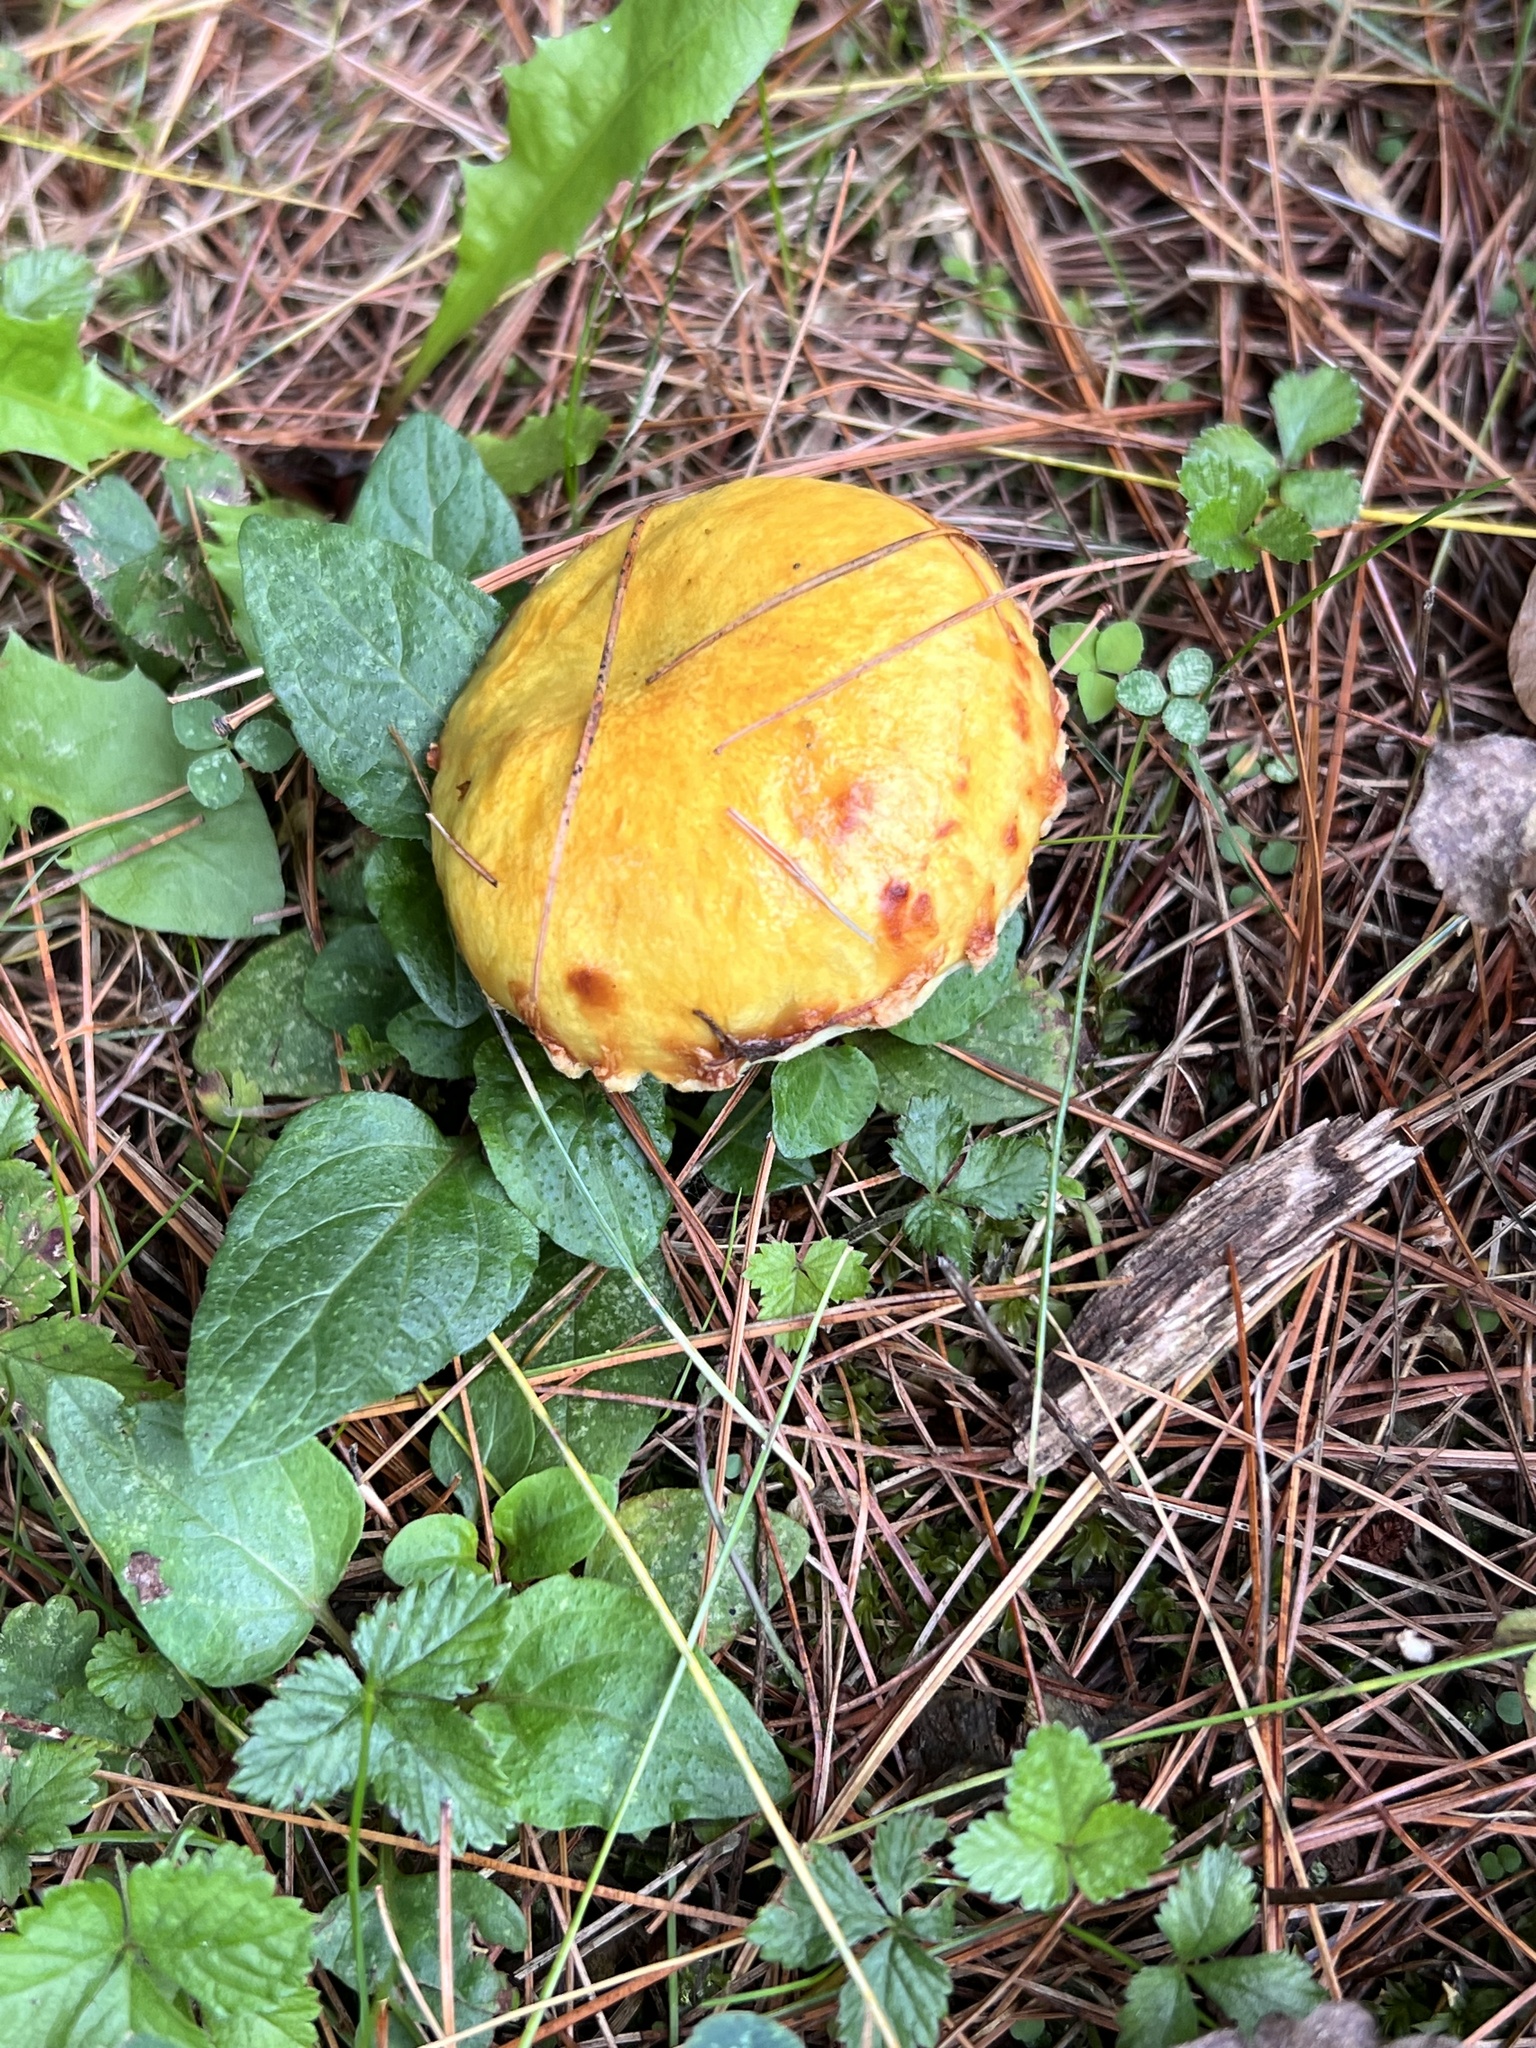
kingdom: Fungi
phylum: Basidiomycota
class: Agaricomycetes
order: Boletales
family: Suillaceae
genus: Suillus
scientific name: Suillus americanus
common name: Chicken fat mushroom
